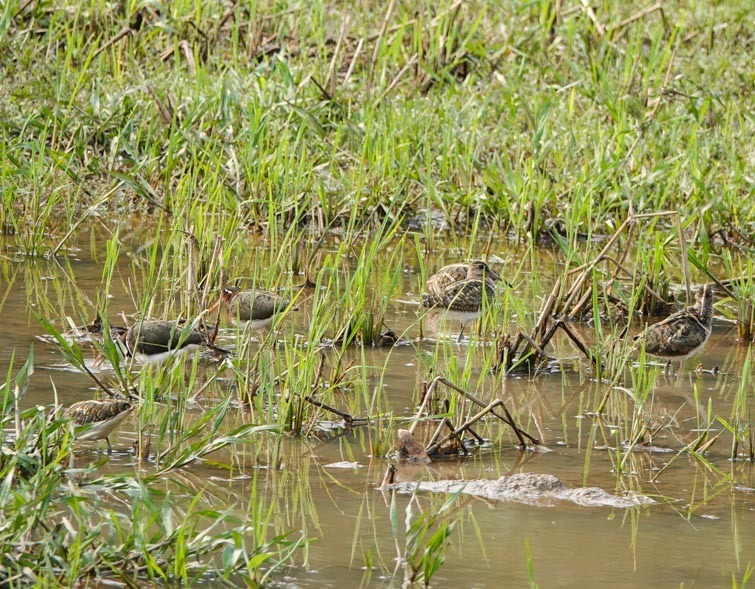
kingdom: Animalia
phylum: Chordata
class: Aves
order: Charadriiformes
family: Rostratulidae
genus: Rostratula
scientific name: Rostratula benghalensis
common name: Greater painted-snipe
